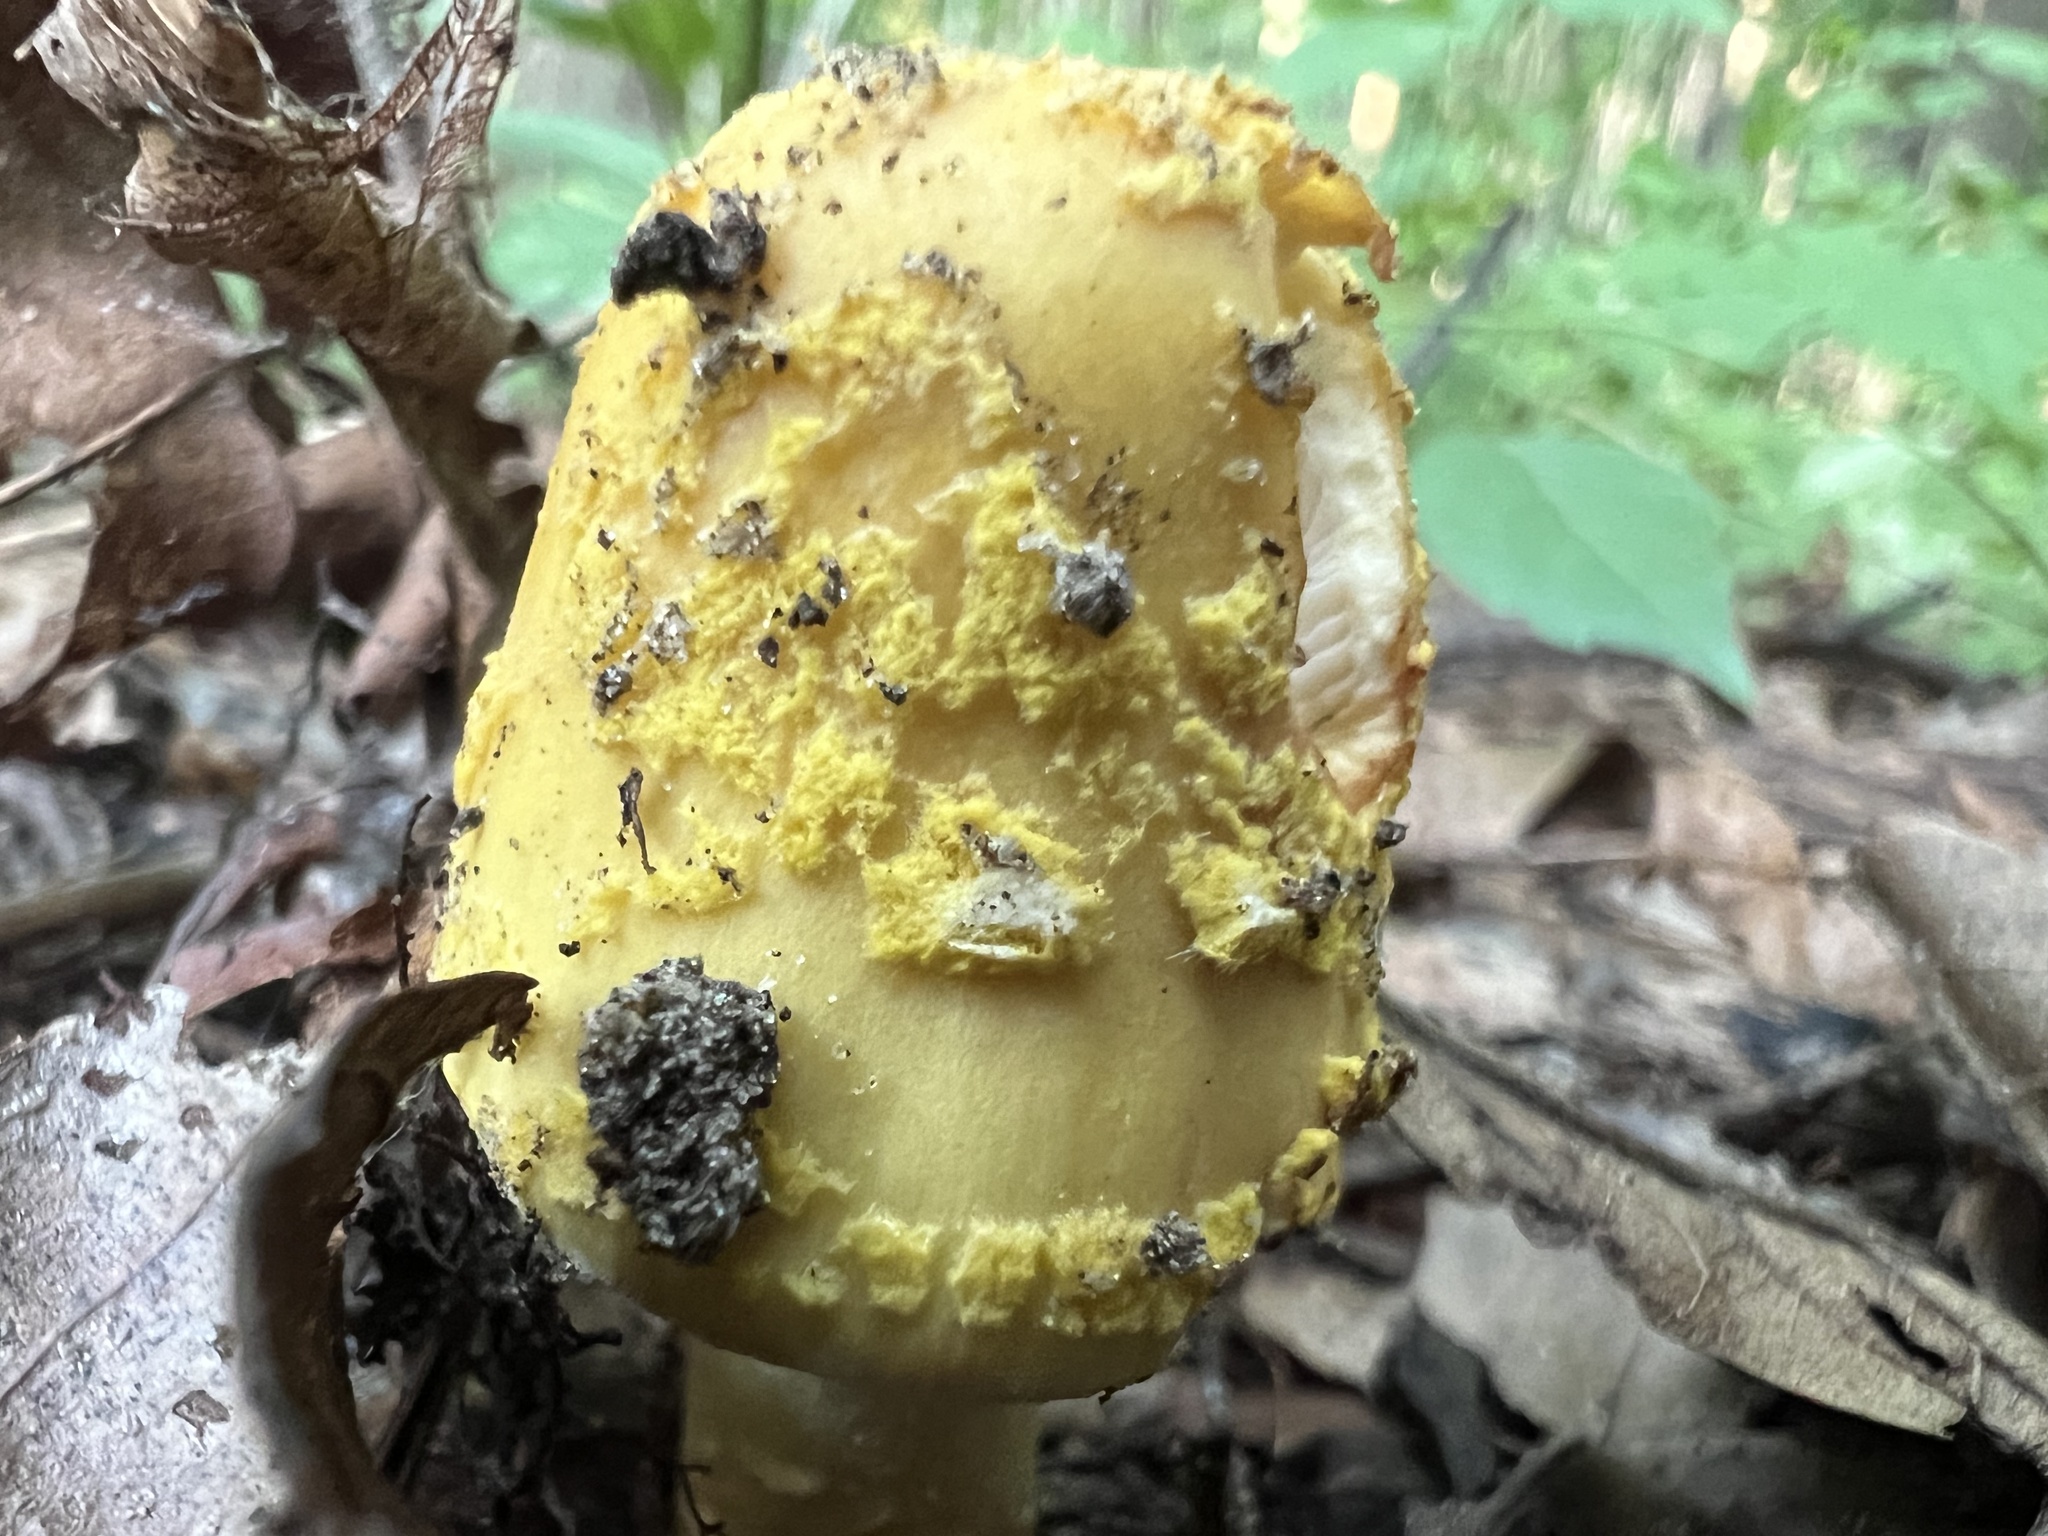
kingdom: Fungi
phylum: Basidiomycota
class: Agaricomycetes
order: Agaricales
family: Amanitaceae
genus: Amanita
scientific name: Amanita flavorubens
